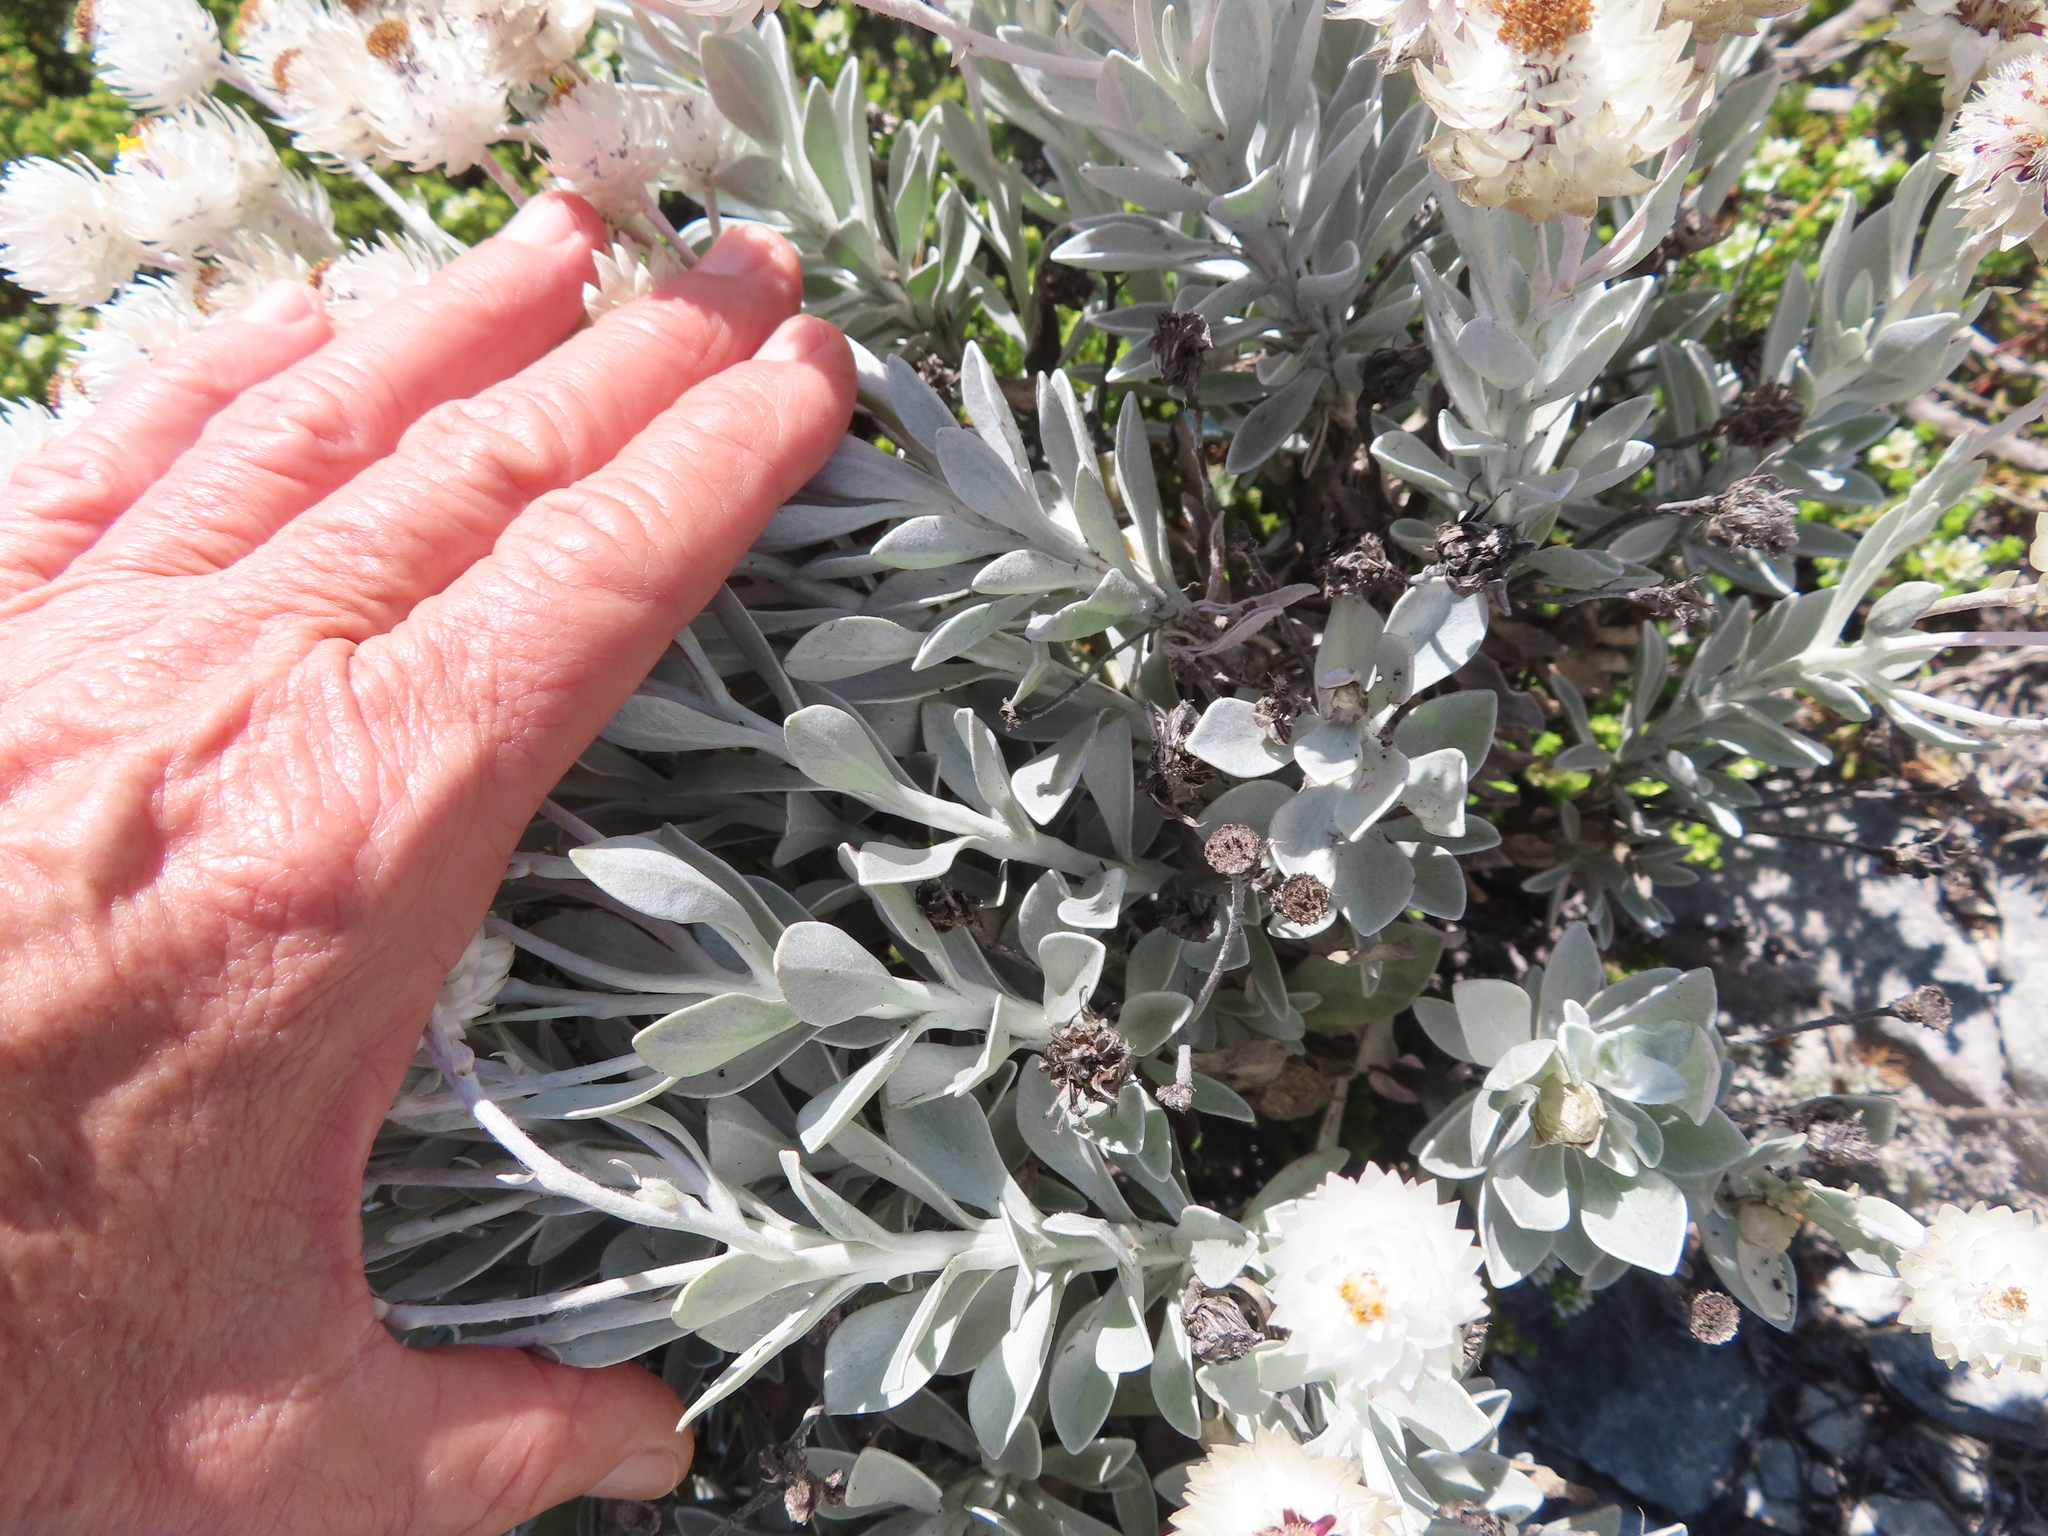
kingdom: Plantae
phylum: Tracheophyta
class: Magnoliopsida
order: Asterales
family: Asteraceae
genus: Syncarpha
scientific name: Syncarpha argyropsis
